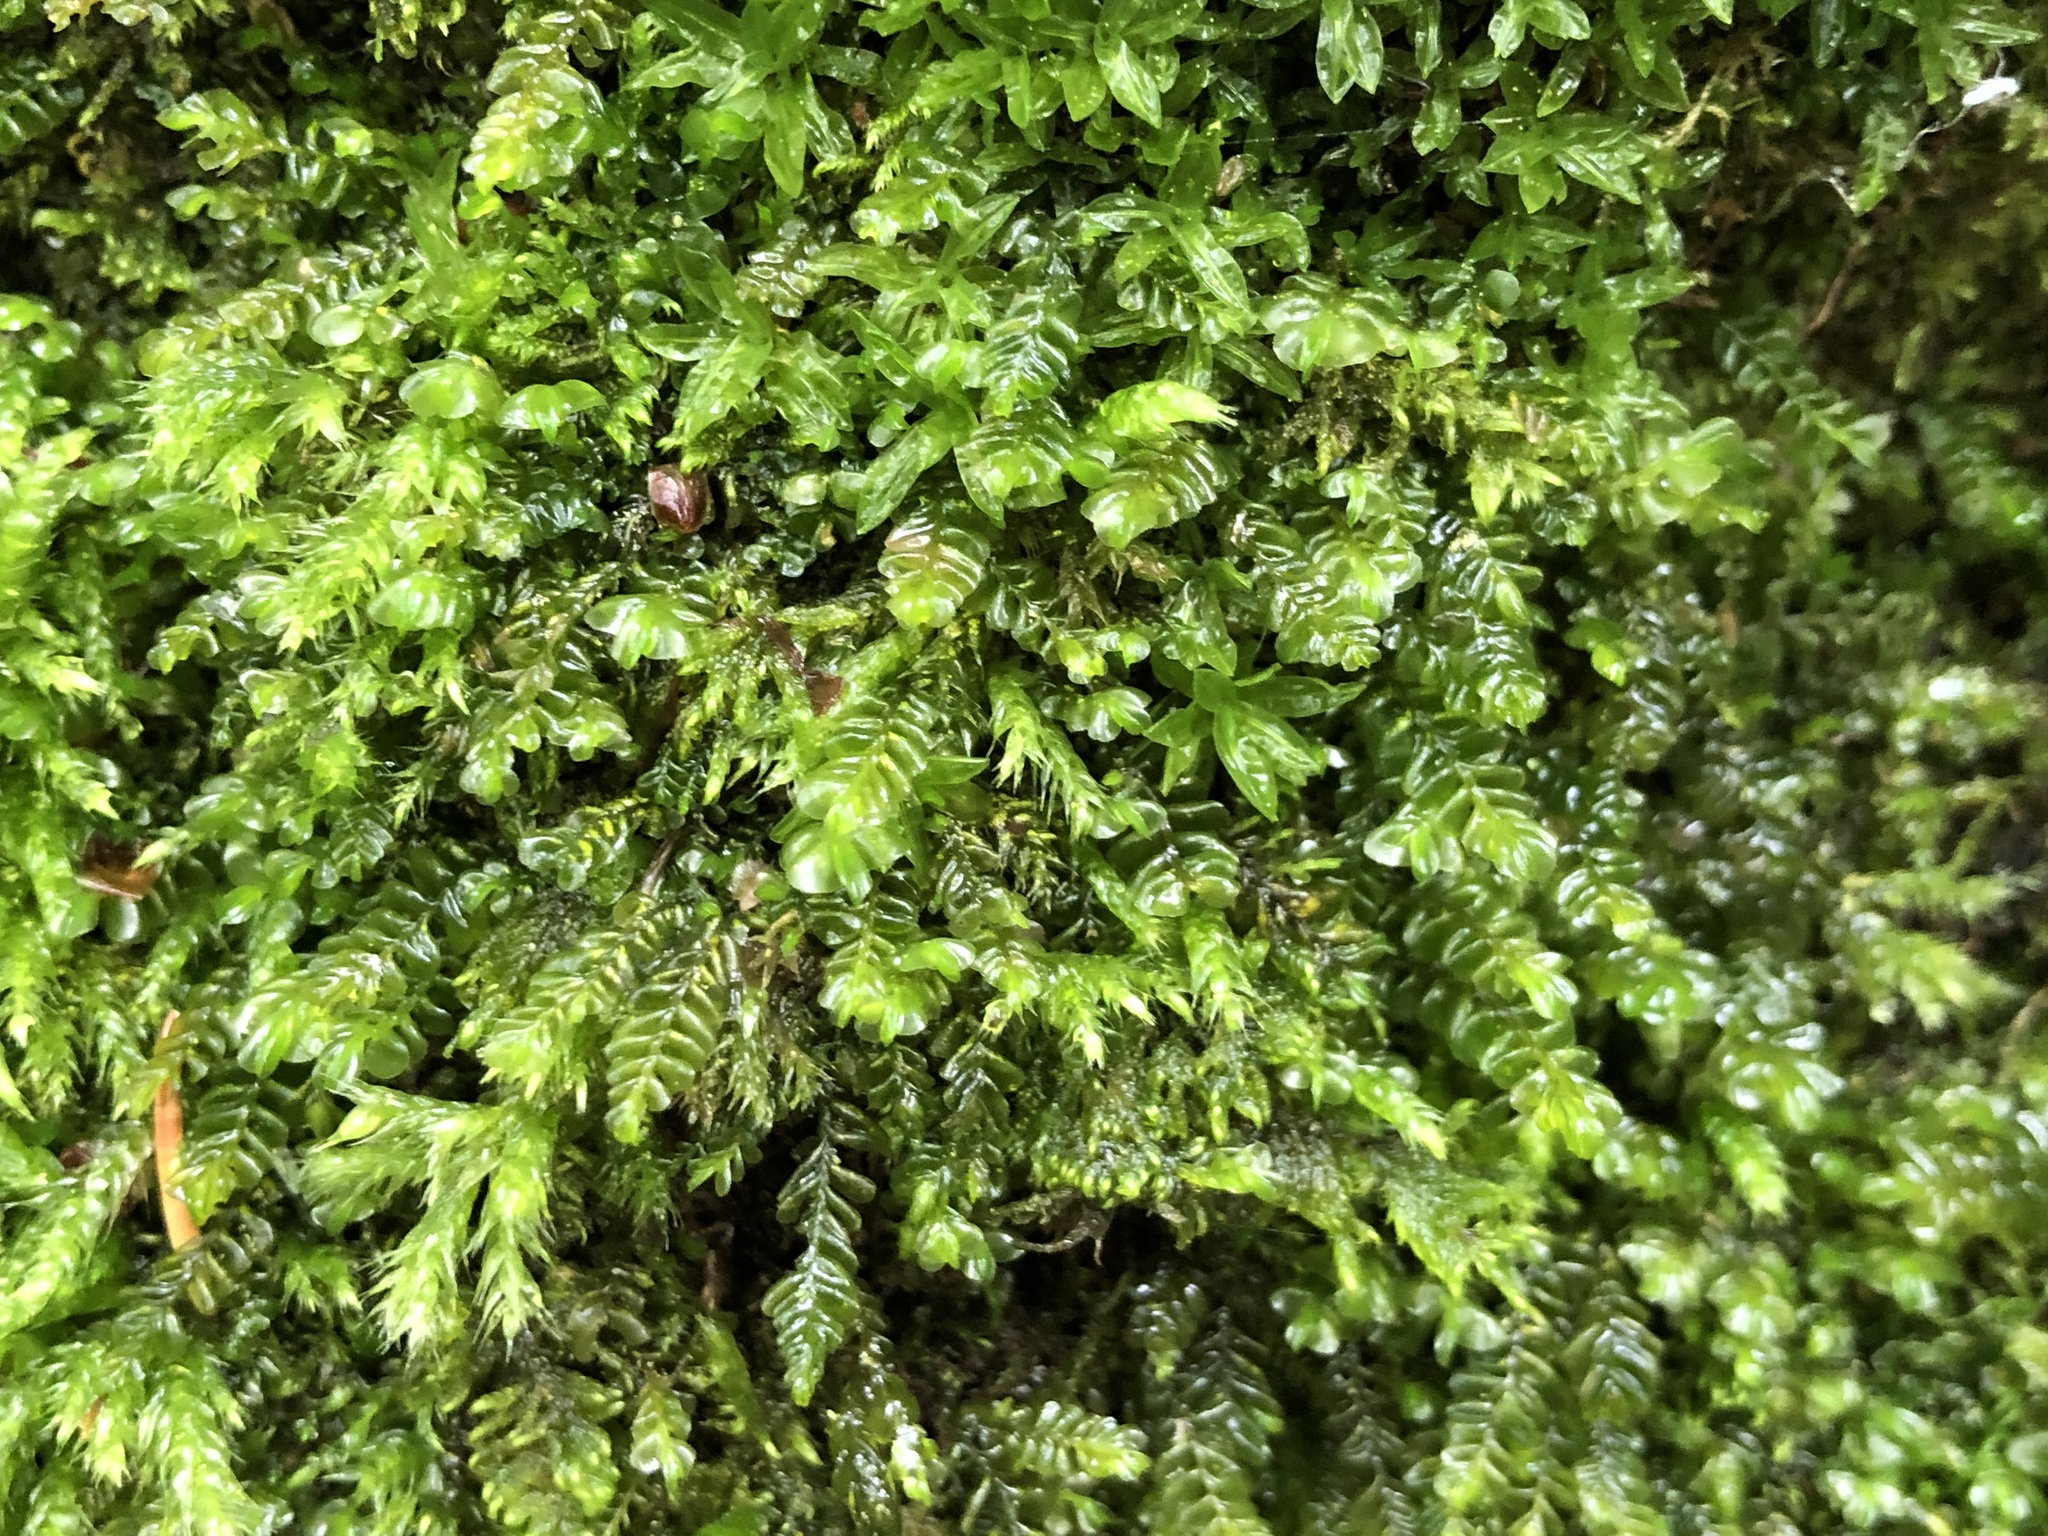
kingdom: Plantae
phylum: Marchantiophyta
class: Jungermanniopsida
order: Jungermanniales
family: Plagiochilaceae
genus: Plagiochila
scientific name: Plagiochila porelloides
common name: Lesser featherwort
